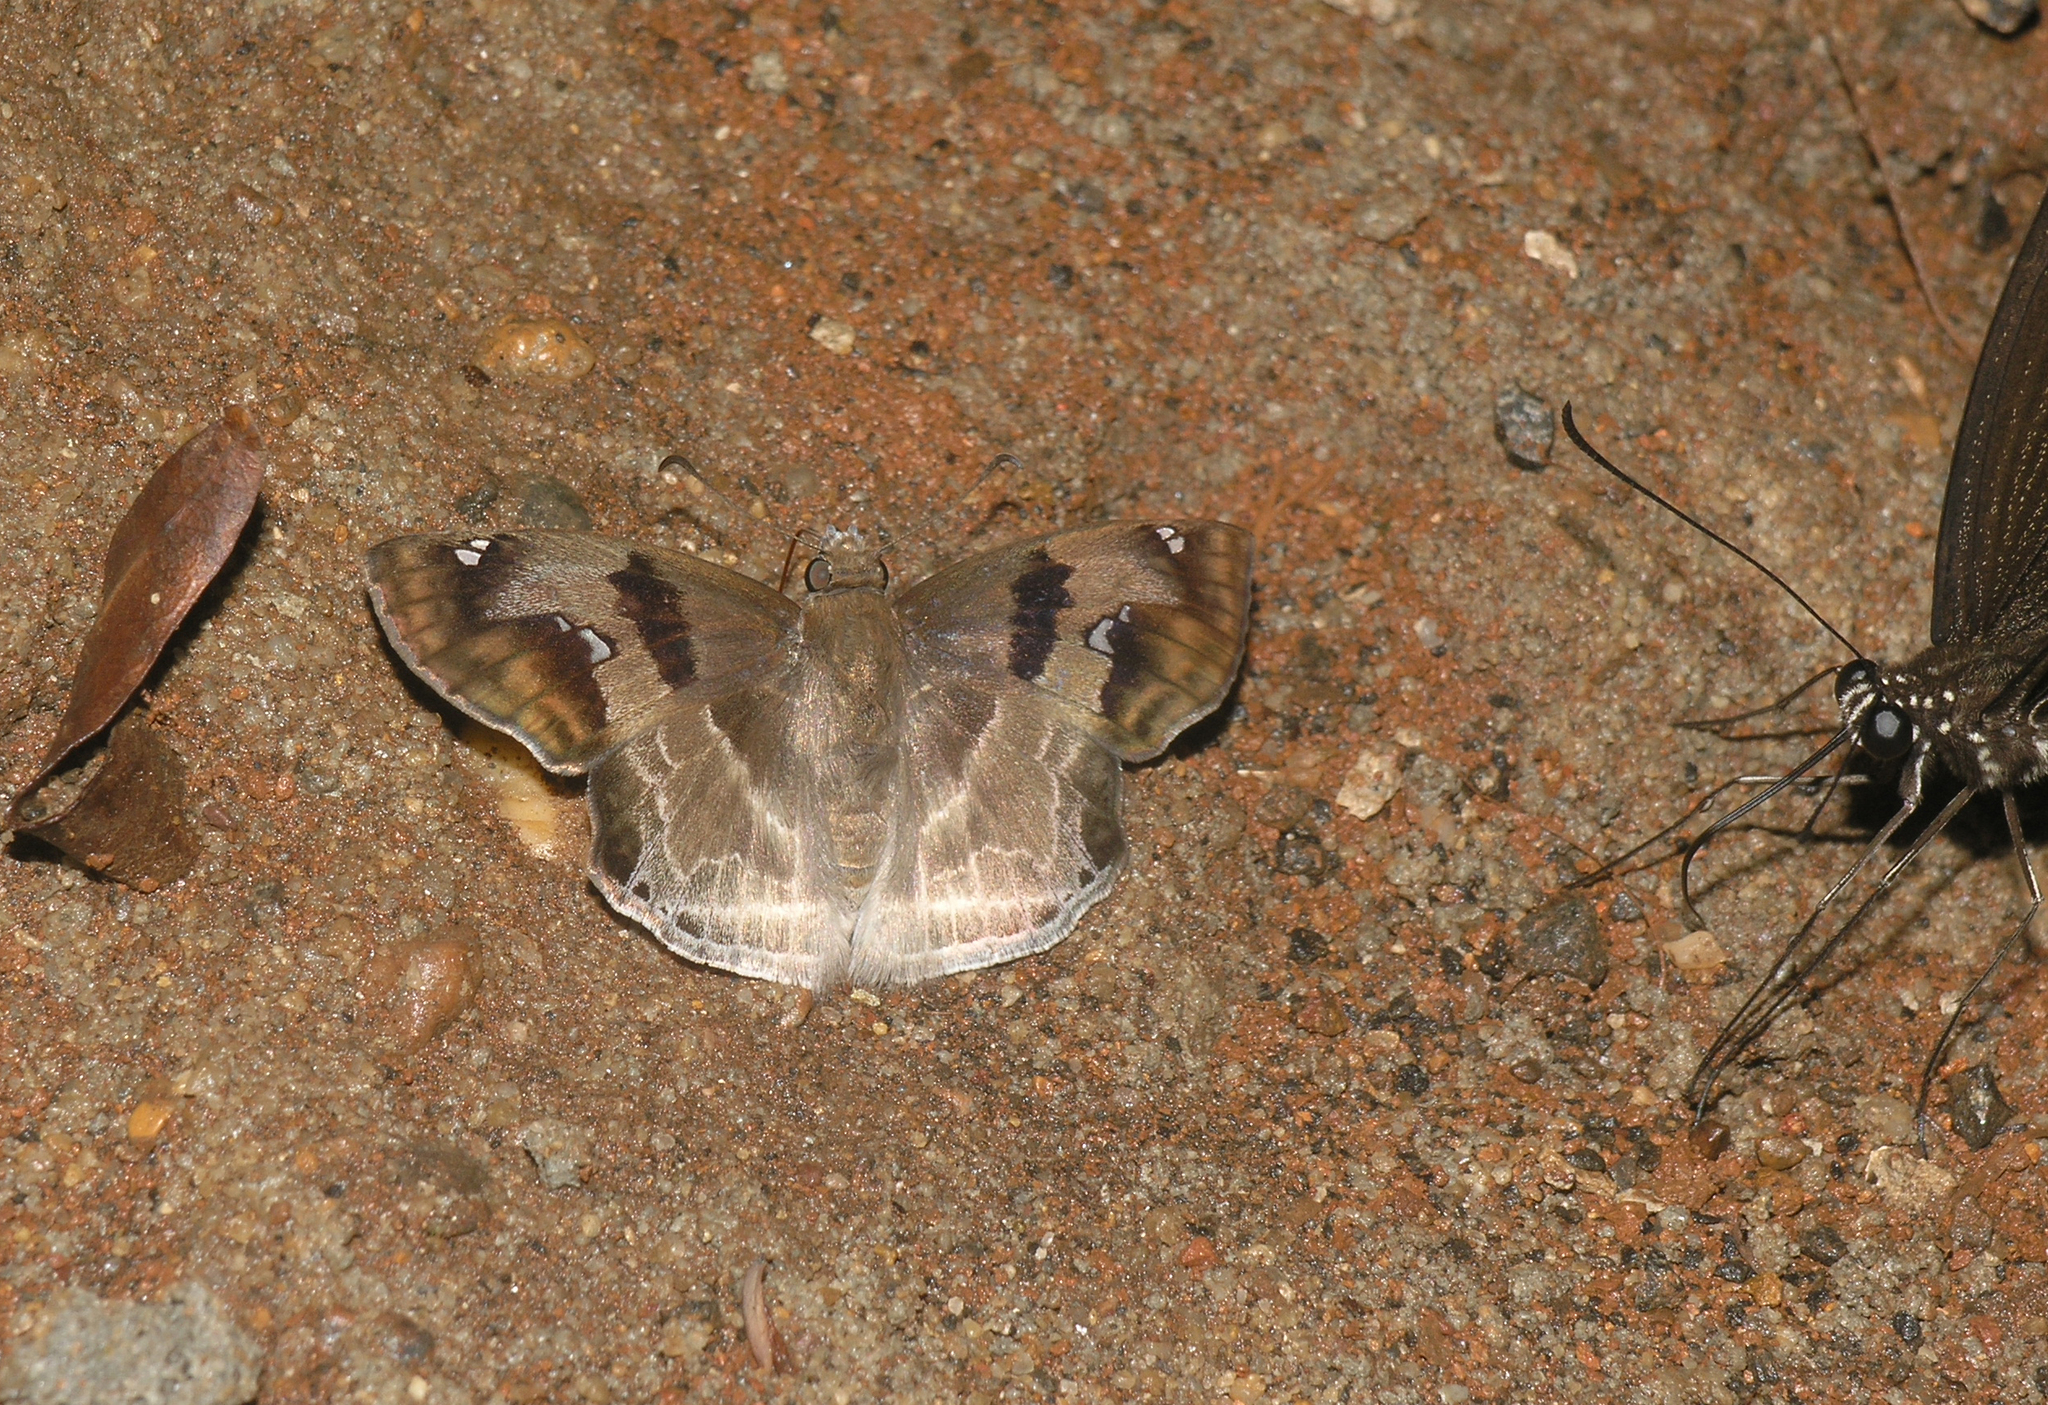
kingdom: Animalia
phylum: Arthropoda
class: Insecta
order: Lepidoptera
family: Hesperiidae
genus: Odontoptilum
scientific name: Odontoptilum angulata
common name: Chestnut banded angle
